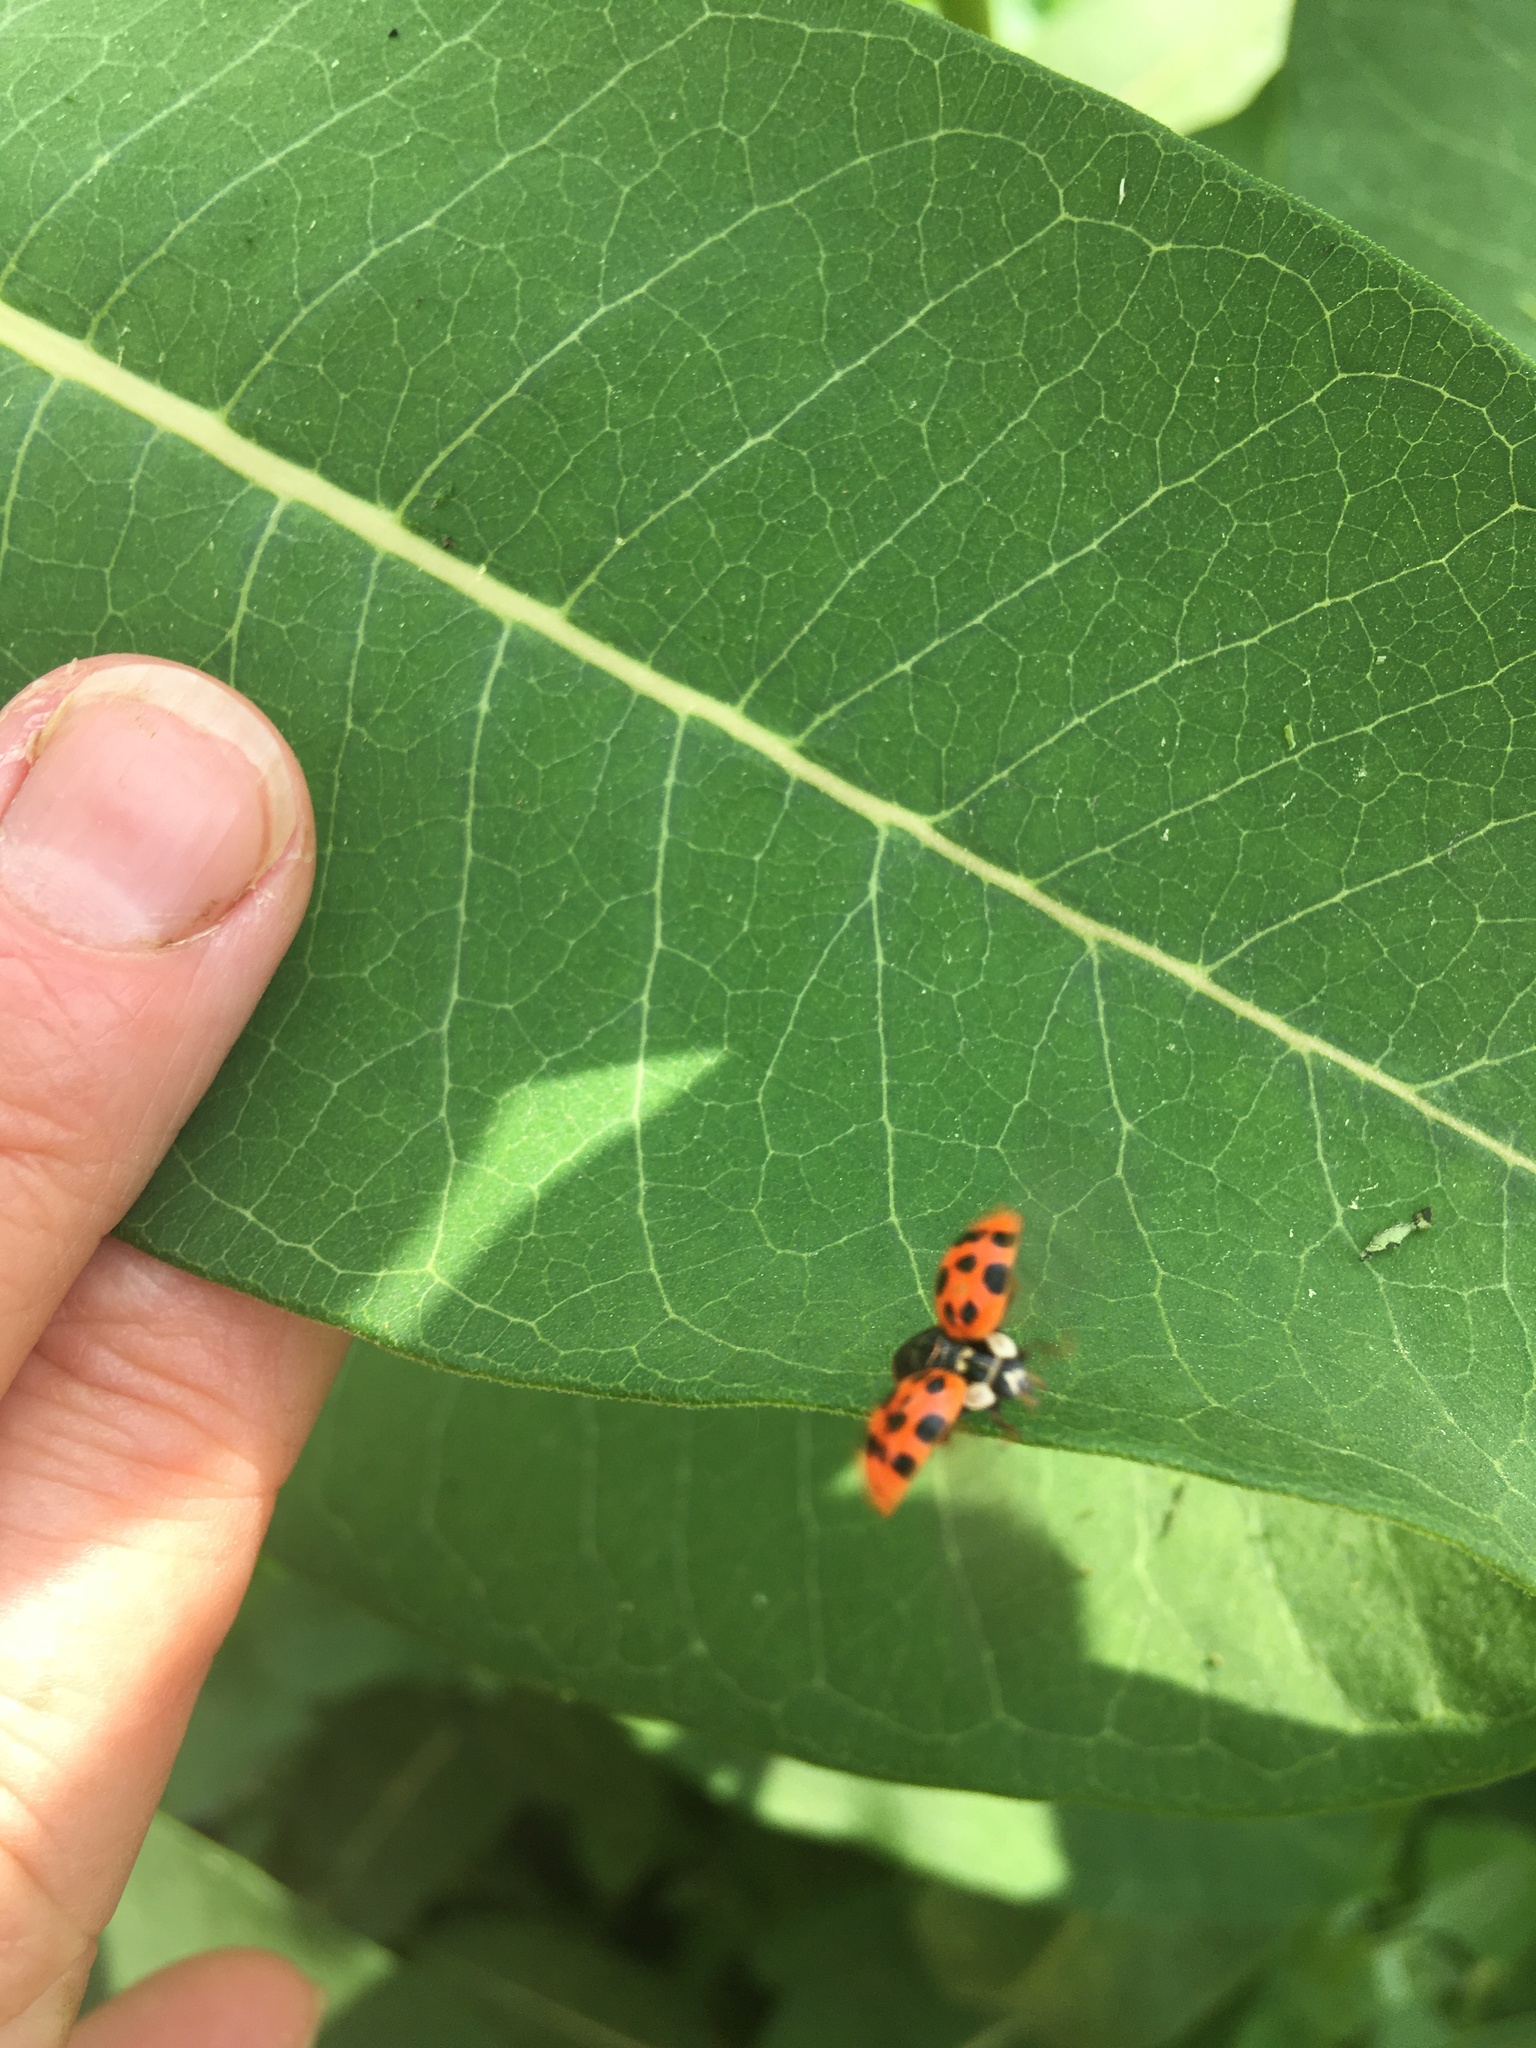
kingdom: Animalia
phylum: Arthropoda
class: Insecta
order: Coleoptera
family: Coccinellidae
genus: Harmonia
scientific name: Harmonia axyridis
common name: Harlequin ladybird
